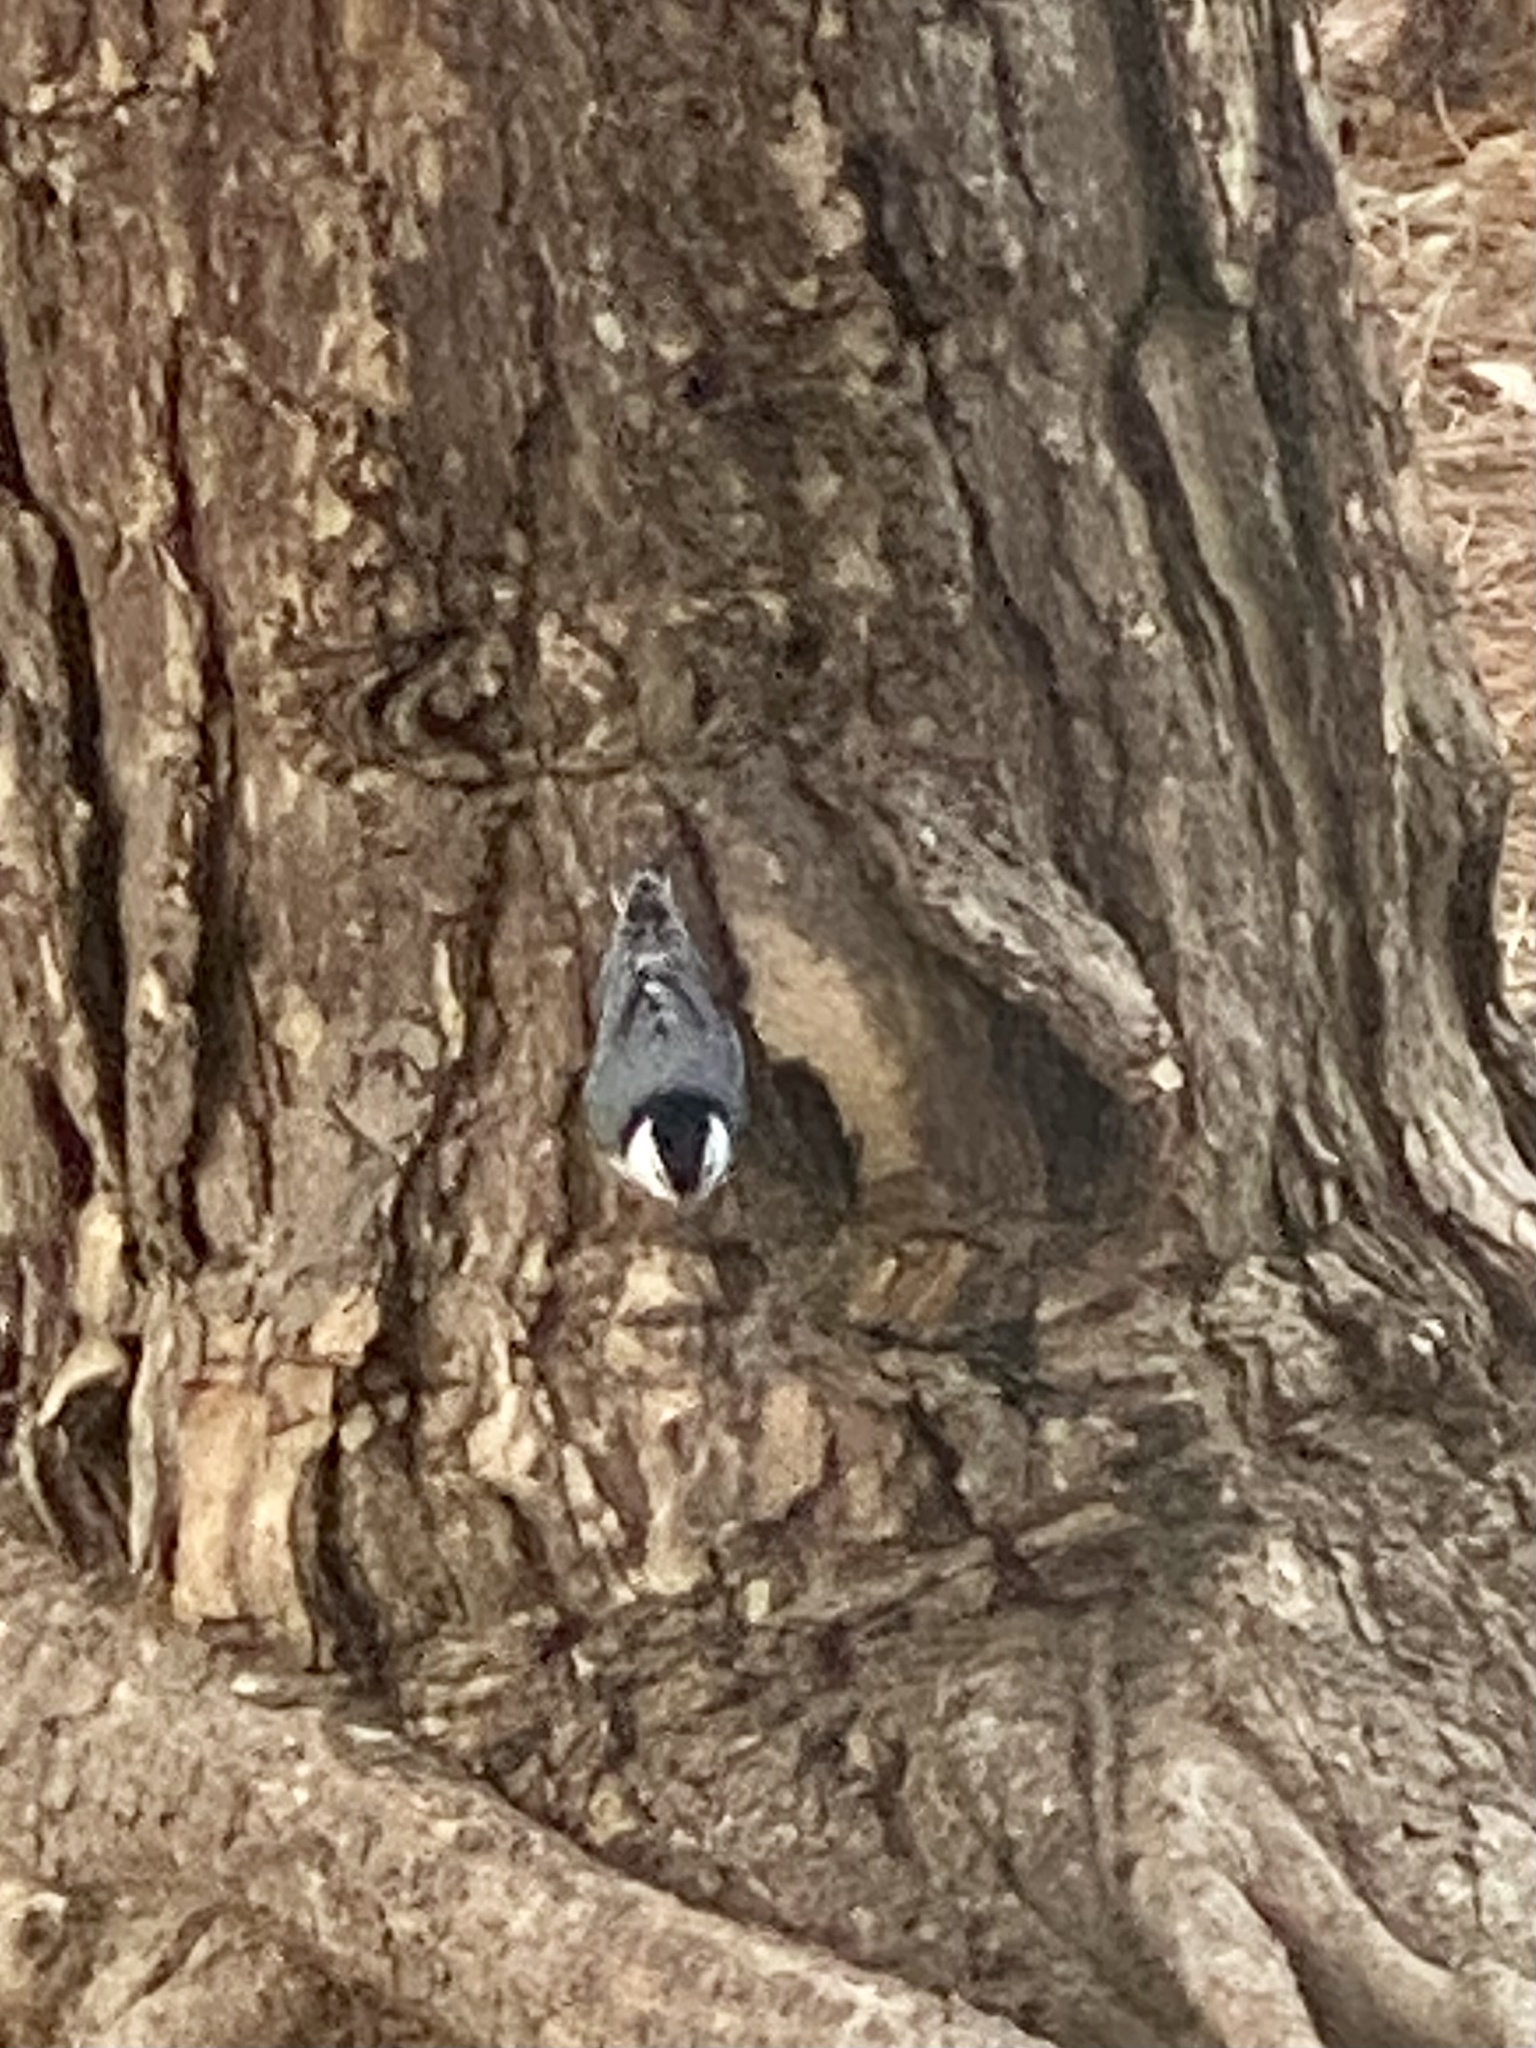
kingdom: Animalia
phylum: Chordata
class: Aves
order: Passeriformes
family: Sittidae
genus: Sitta
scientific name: Sitta carolinensis
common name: White-breasted nuthatch
